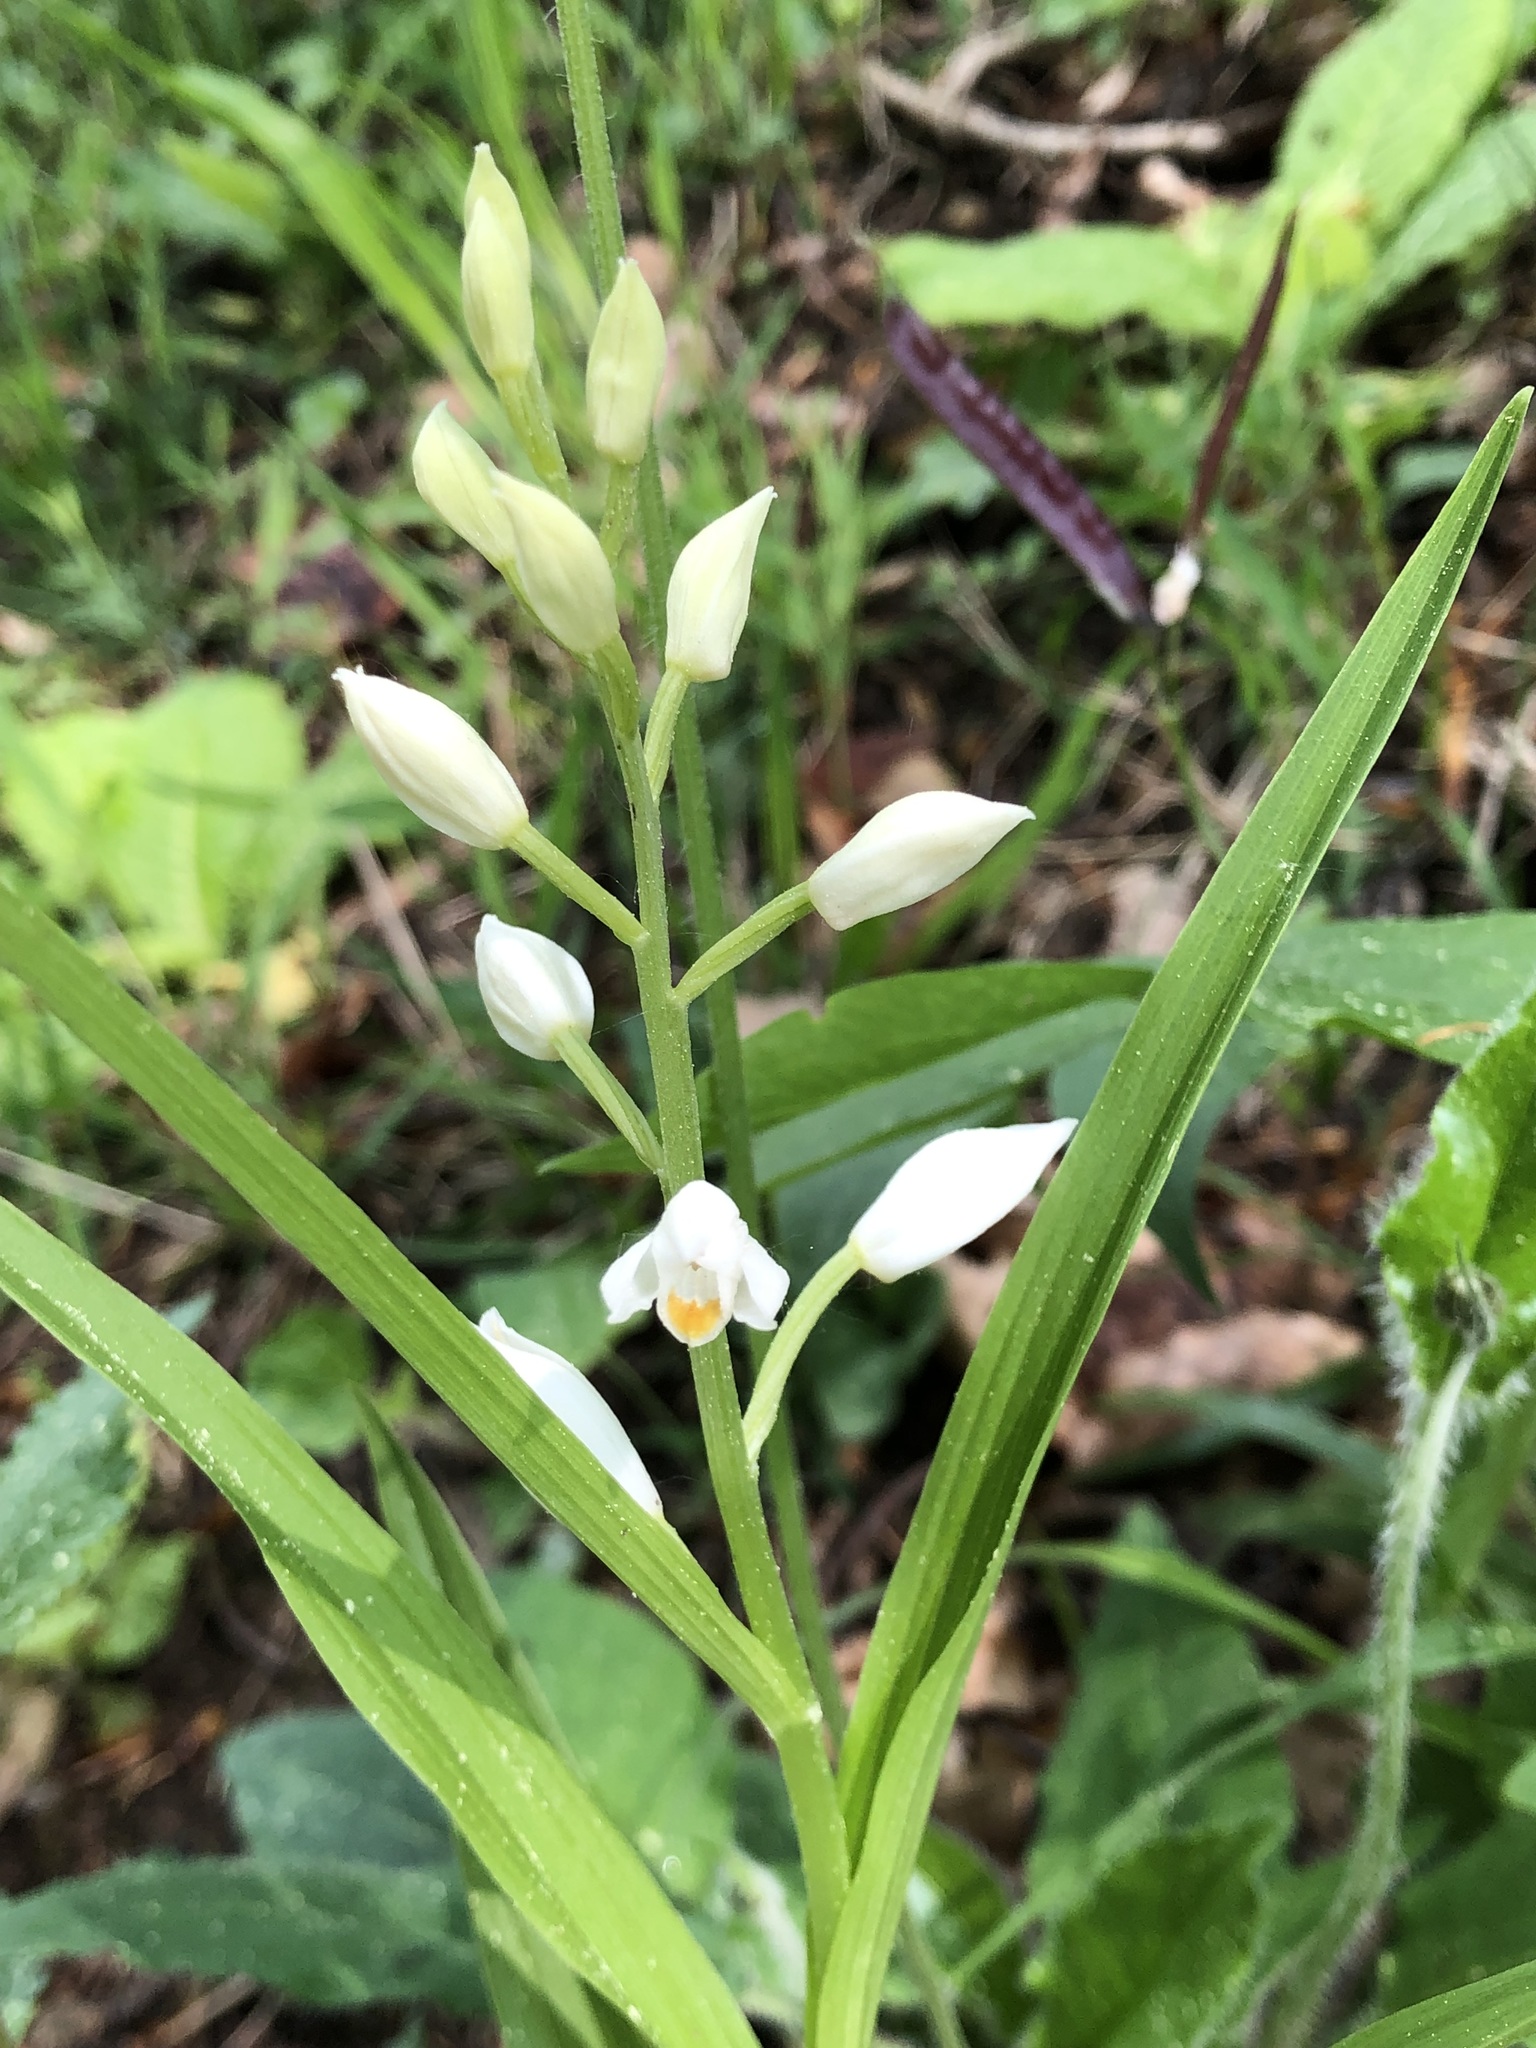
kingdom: Plantae
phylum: Tracheophyta
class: Liliopsida
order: Asparagales
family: Orchidaceae
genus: Cephalanthera
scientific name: Cephalanthera longifolia
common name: Narrow-leaved helleborine
